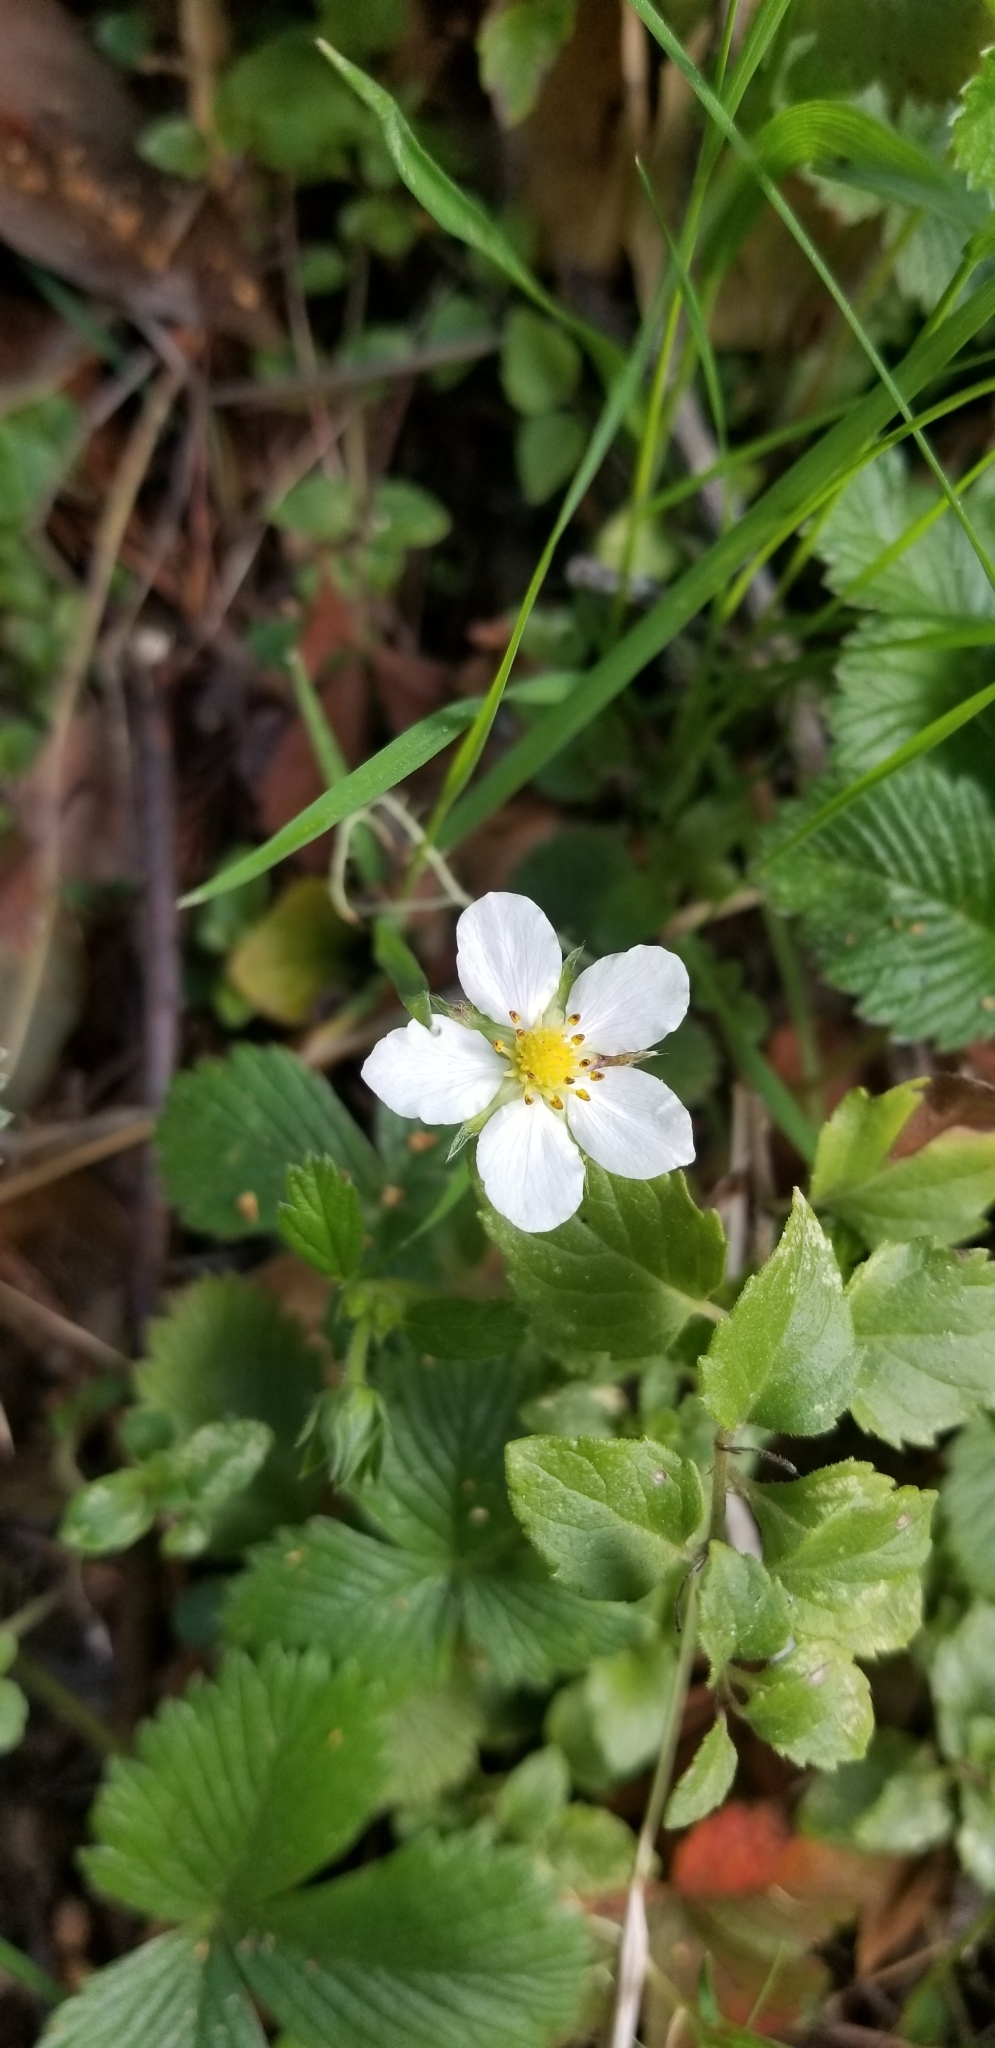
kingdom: Plantae
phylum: Tracheophyta
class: Magnoliopsida
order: Rosales
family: Rosaceae
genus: Fragaria
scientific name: Fragaria vesca
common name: Wild strawberry
